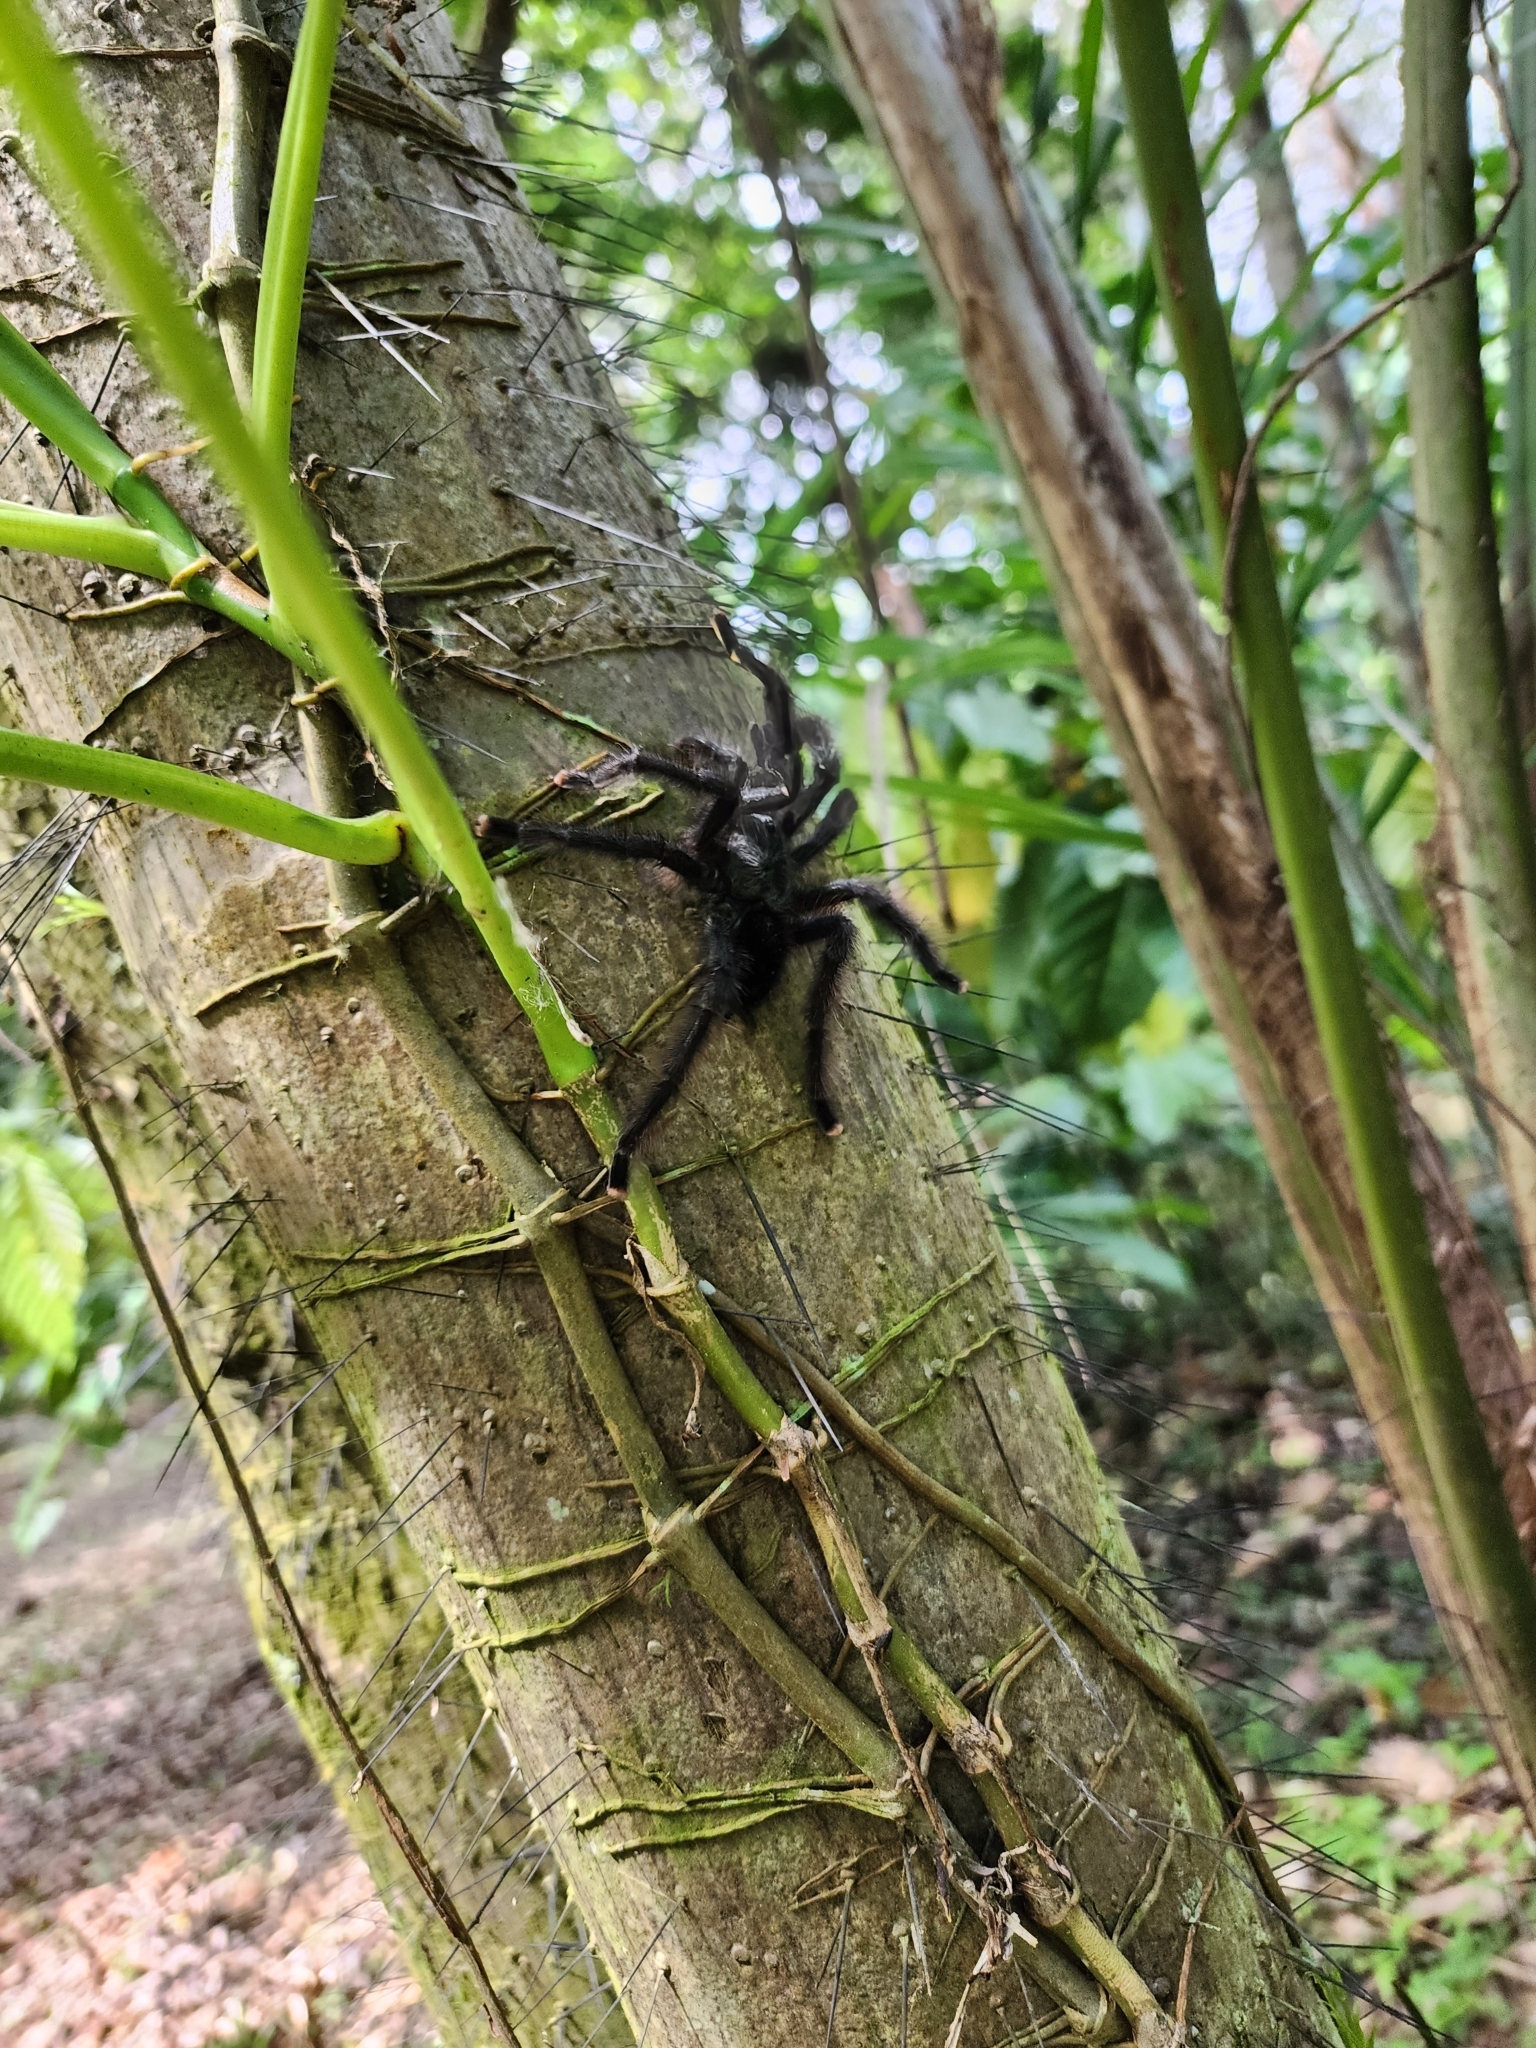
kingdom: Animalia
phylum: Arthropoda
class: Arachnida
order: Araneae
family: Theraphosidae
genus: Avicularia
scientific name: Avicularia avicularia
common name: Tarantula spiders
